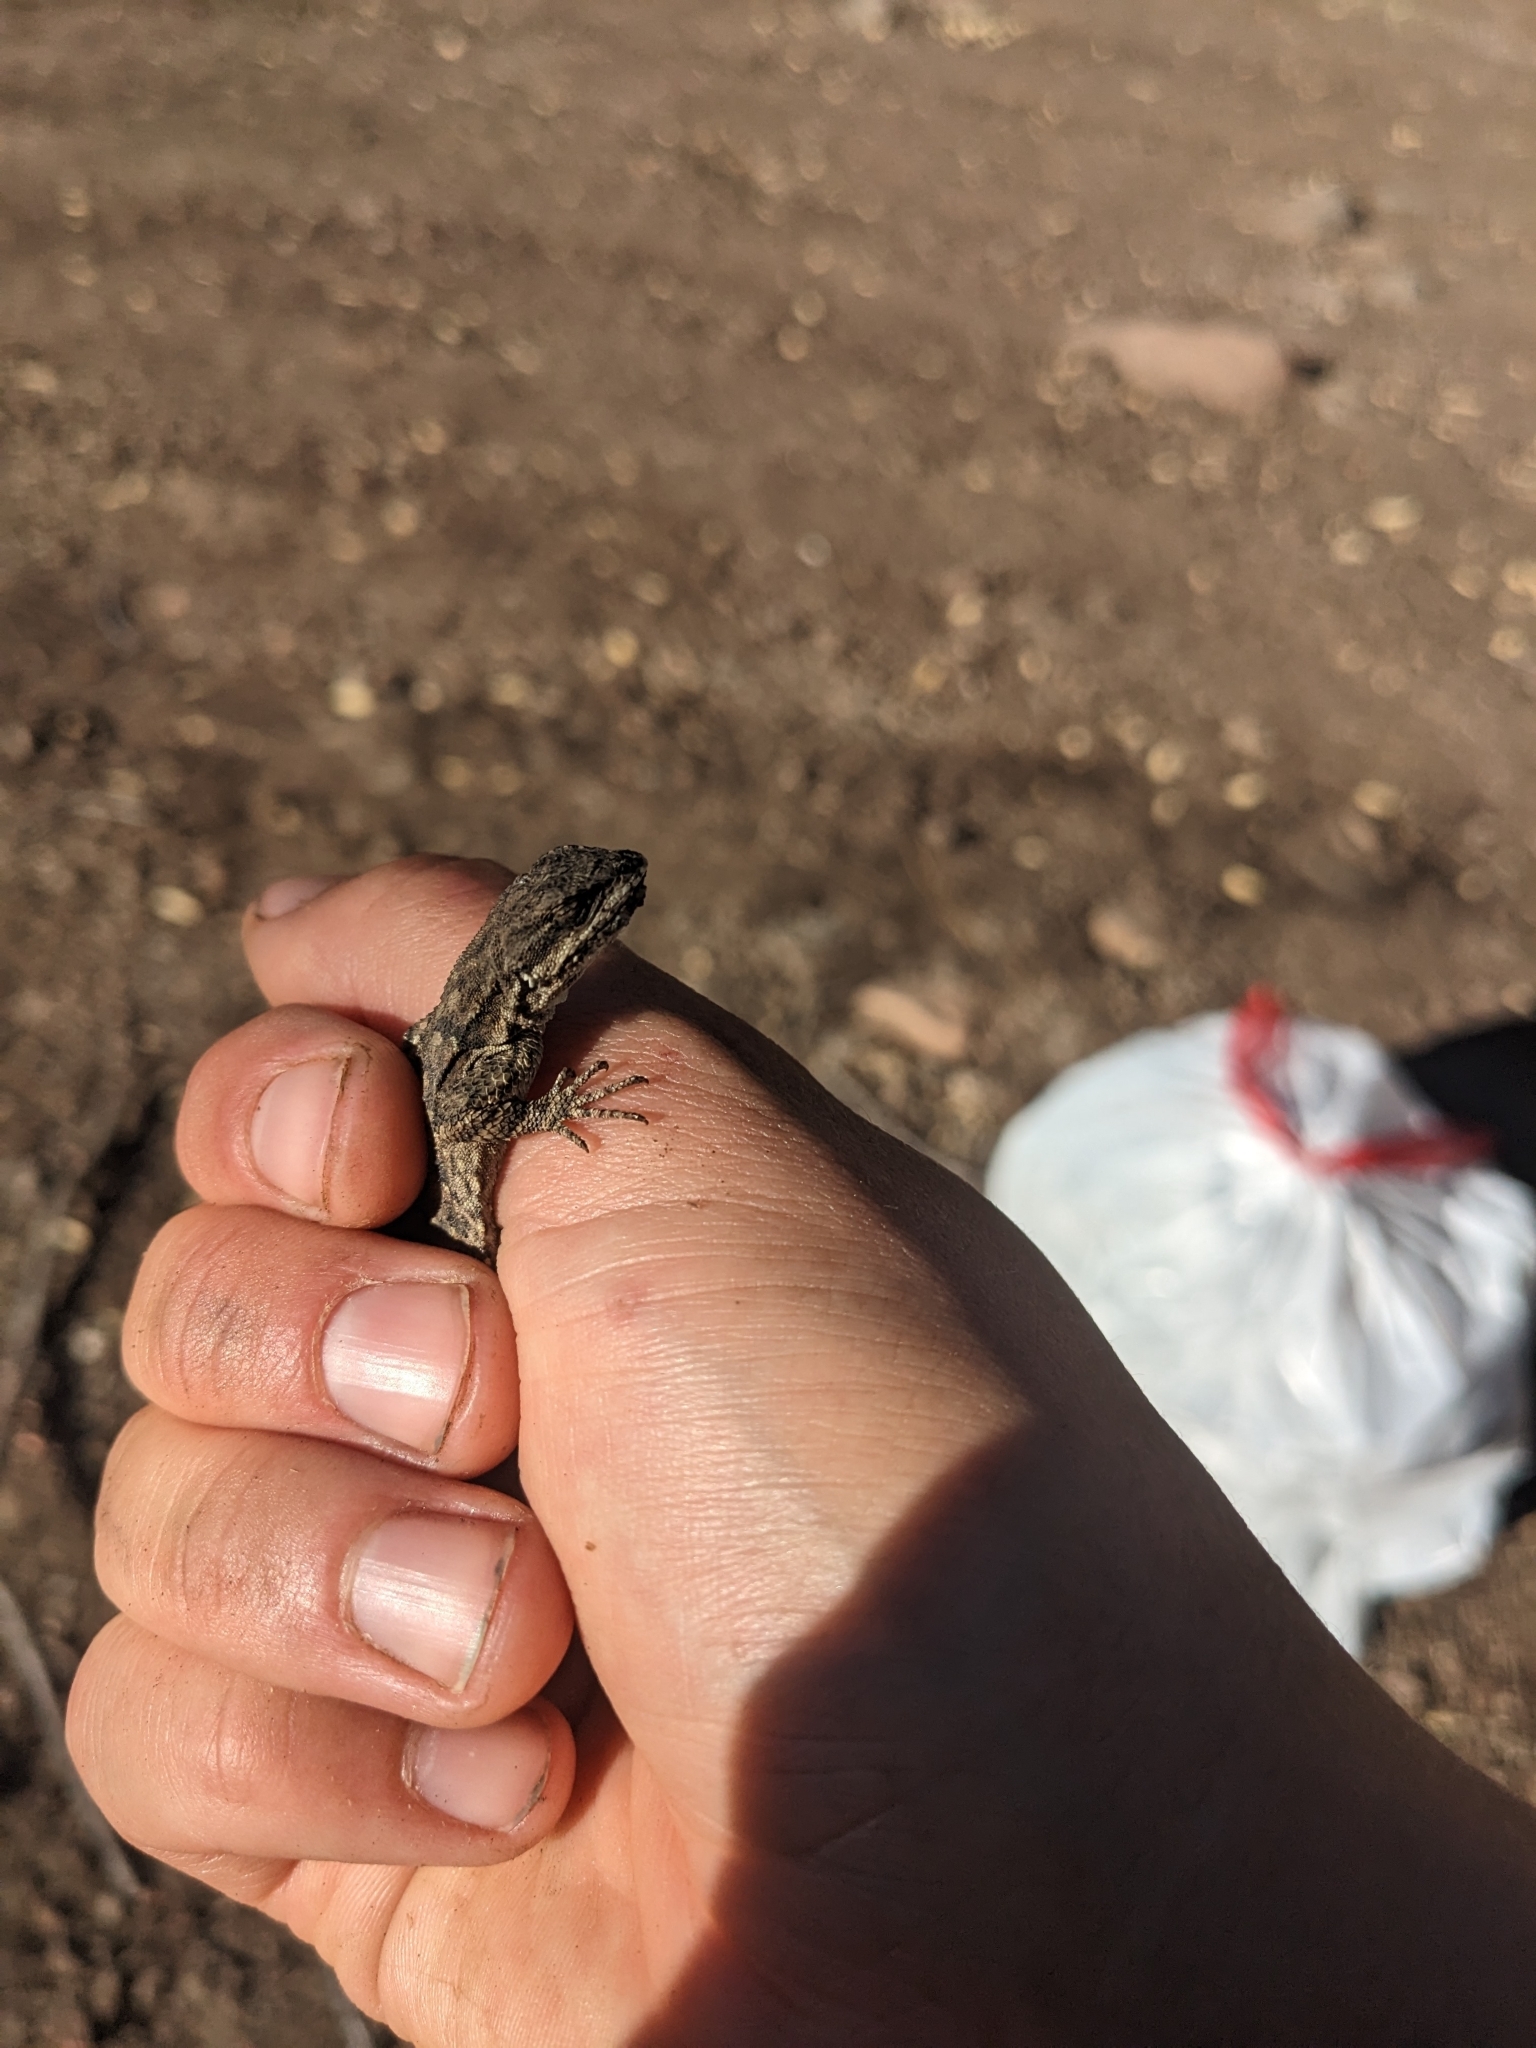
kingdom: Animalia
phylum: Chordata
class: Squamata
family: Phrynosomatidae
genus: Urosaurus
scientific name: Urosaurus ornatus
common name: Ornate tree lizard
